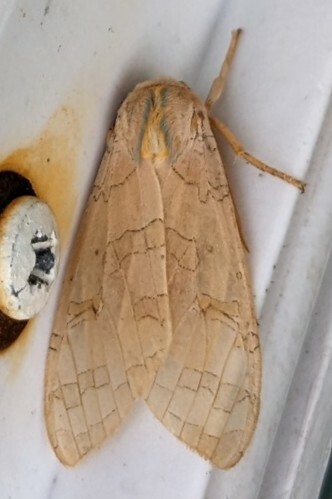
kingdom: Animalia
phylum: Arthropoda
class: Insecta
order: Lepidoptera
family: Erebidae
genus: Halysidota
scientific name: Halysidota tessellaris
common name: Banded tussock moth
